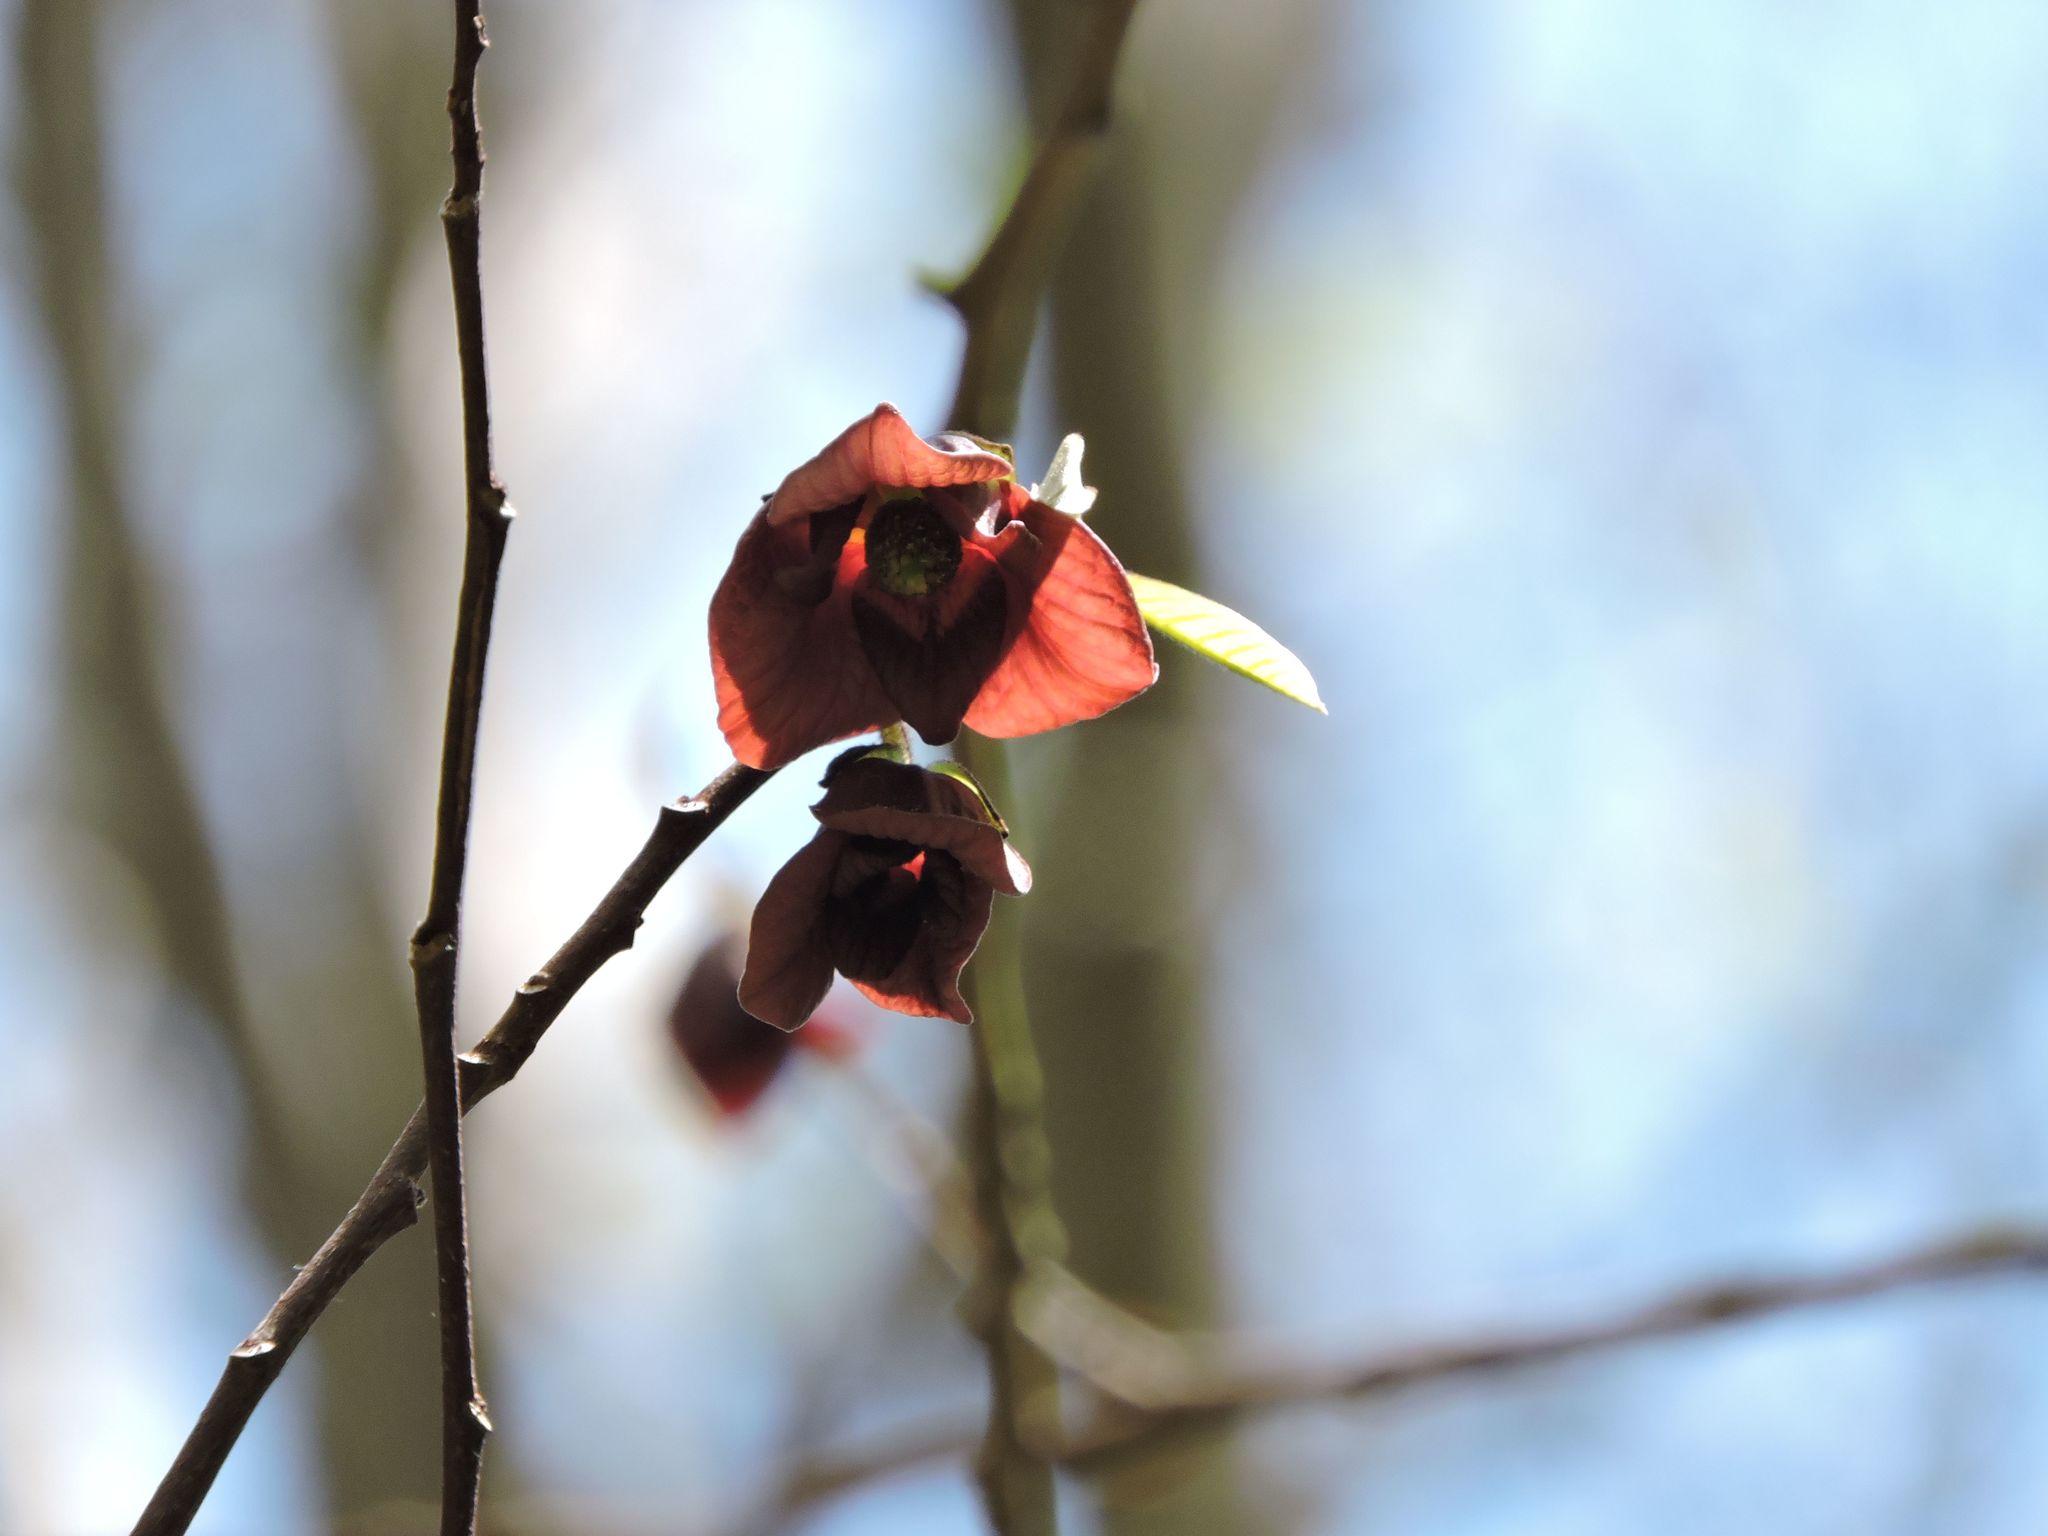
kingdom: Plantae
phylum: Tracheophyta
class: Magnoliopsida
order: Magnoliales
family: Annonaceae
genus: Asimina
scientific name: Asimina triloba
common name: Dog-banana
